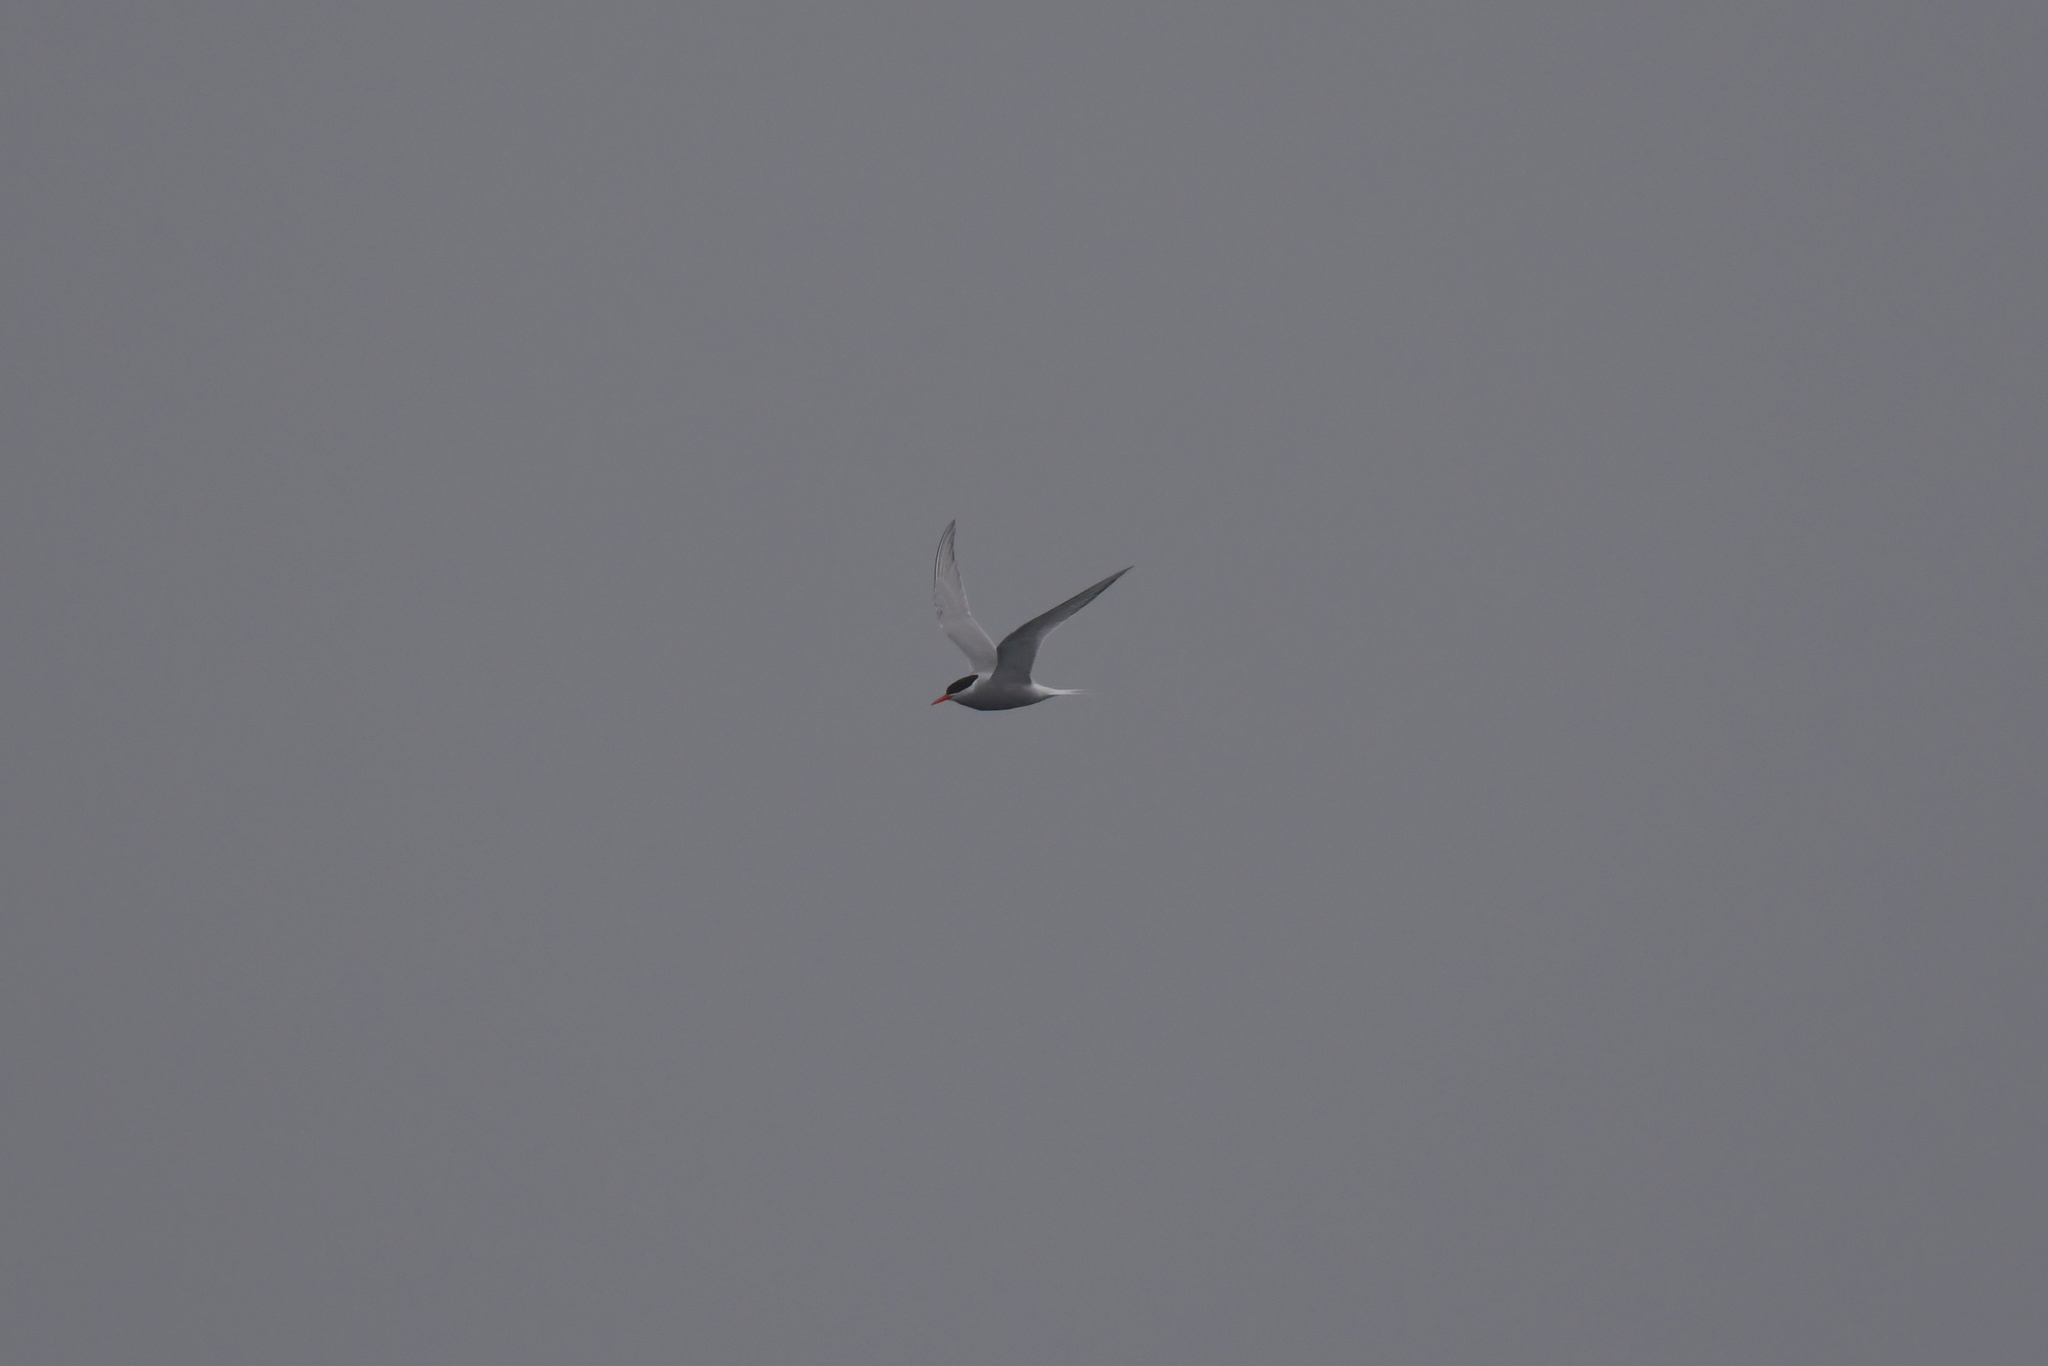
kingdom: Animalia
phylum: Chordata
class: Aves
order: Charadriiformes
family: Laridae
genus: Sterna
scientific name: Sterna vittata
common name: Antarctic tern
